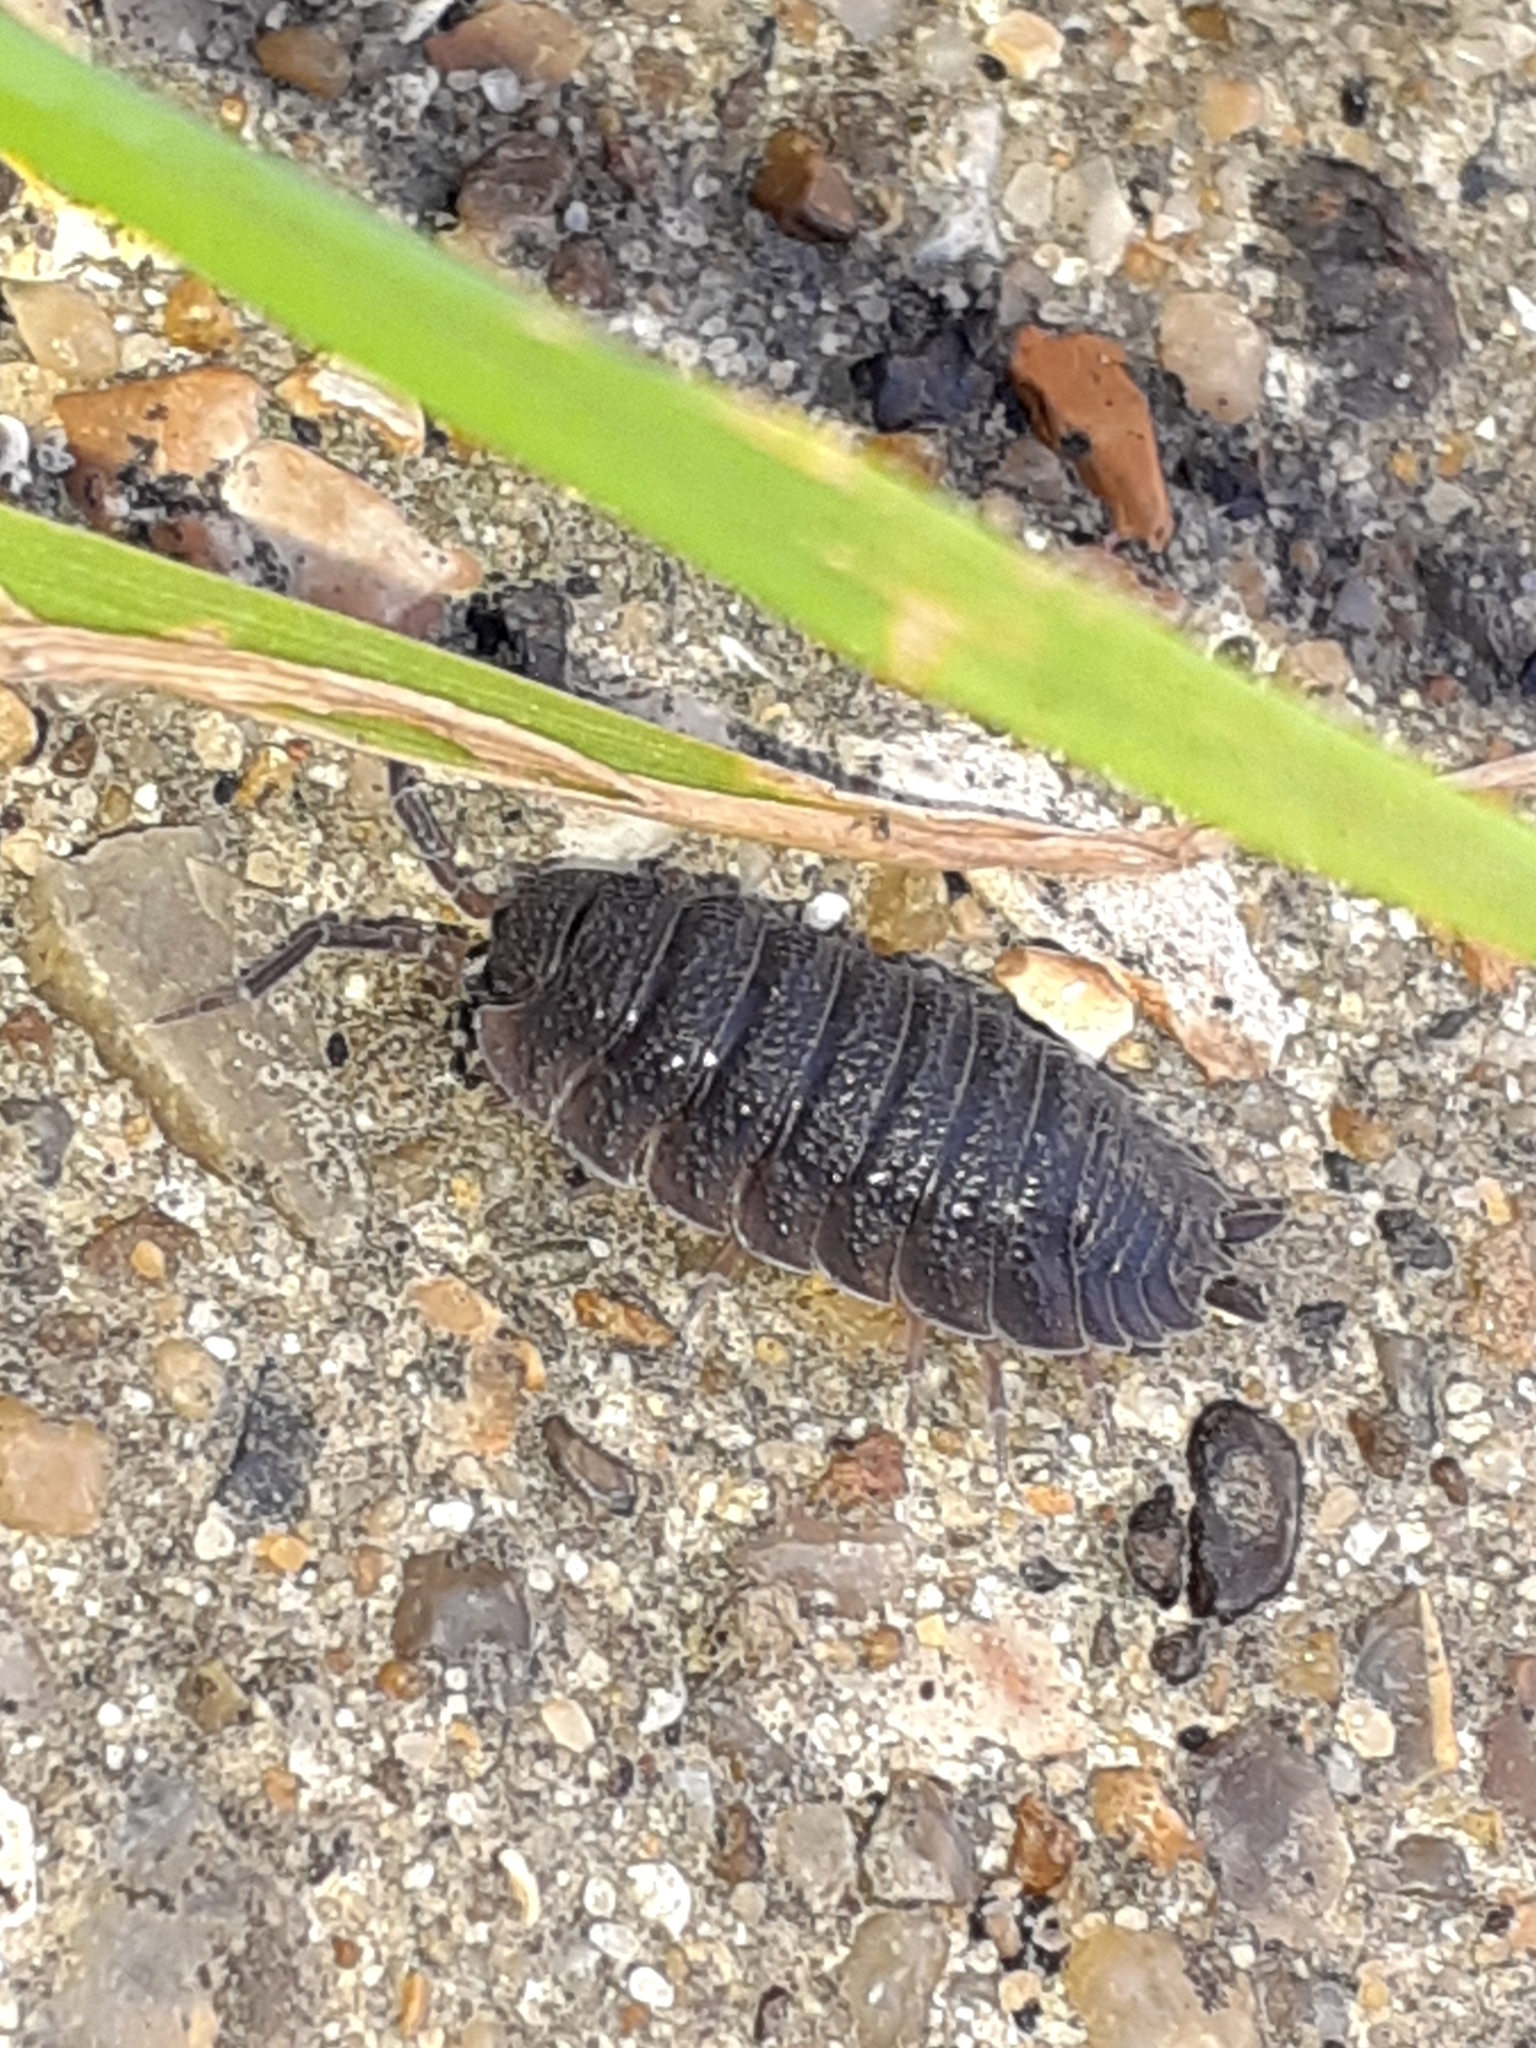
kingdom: Animalia
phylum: Arthropoda
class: Malacostraca
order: Isopoda
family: Porcellionidae
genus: Porcellio
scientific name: Porcellio scaber
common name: Common rough woodlouse
